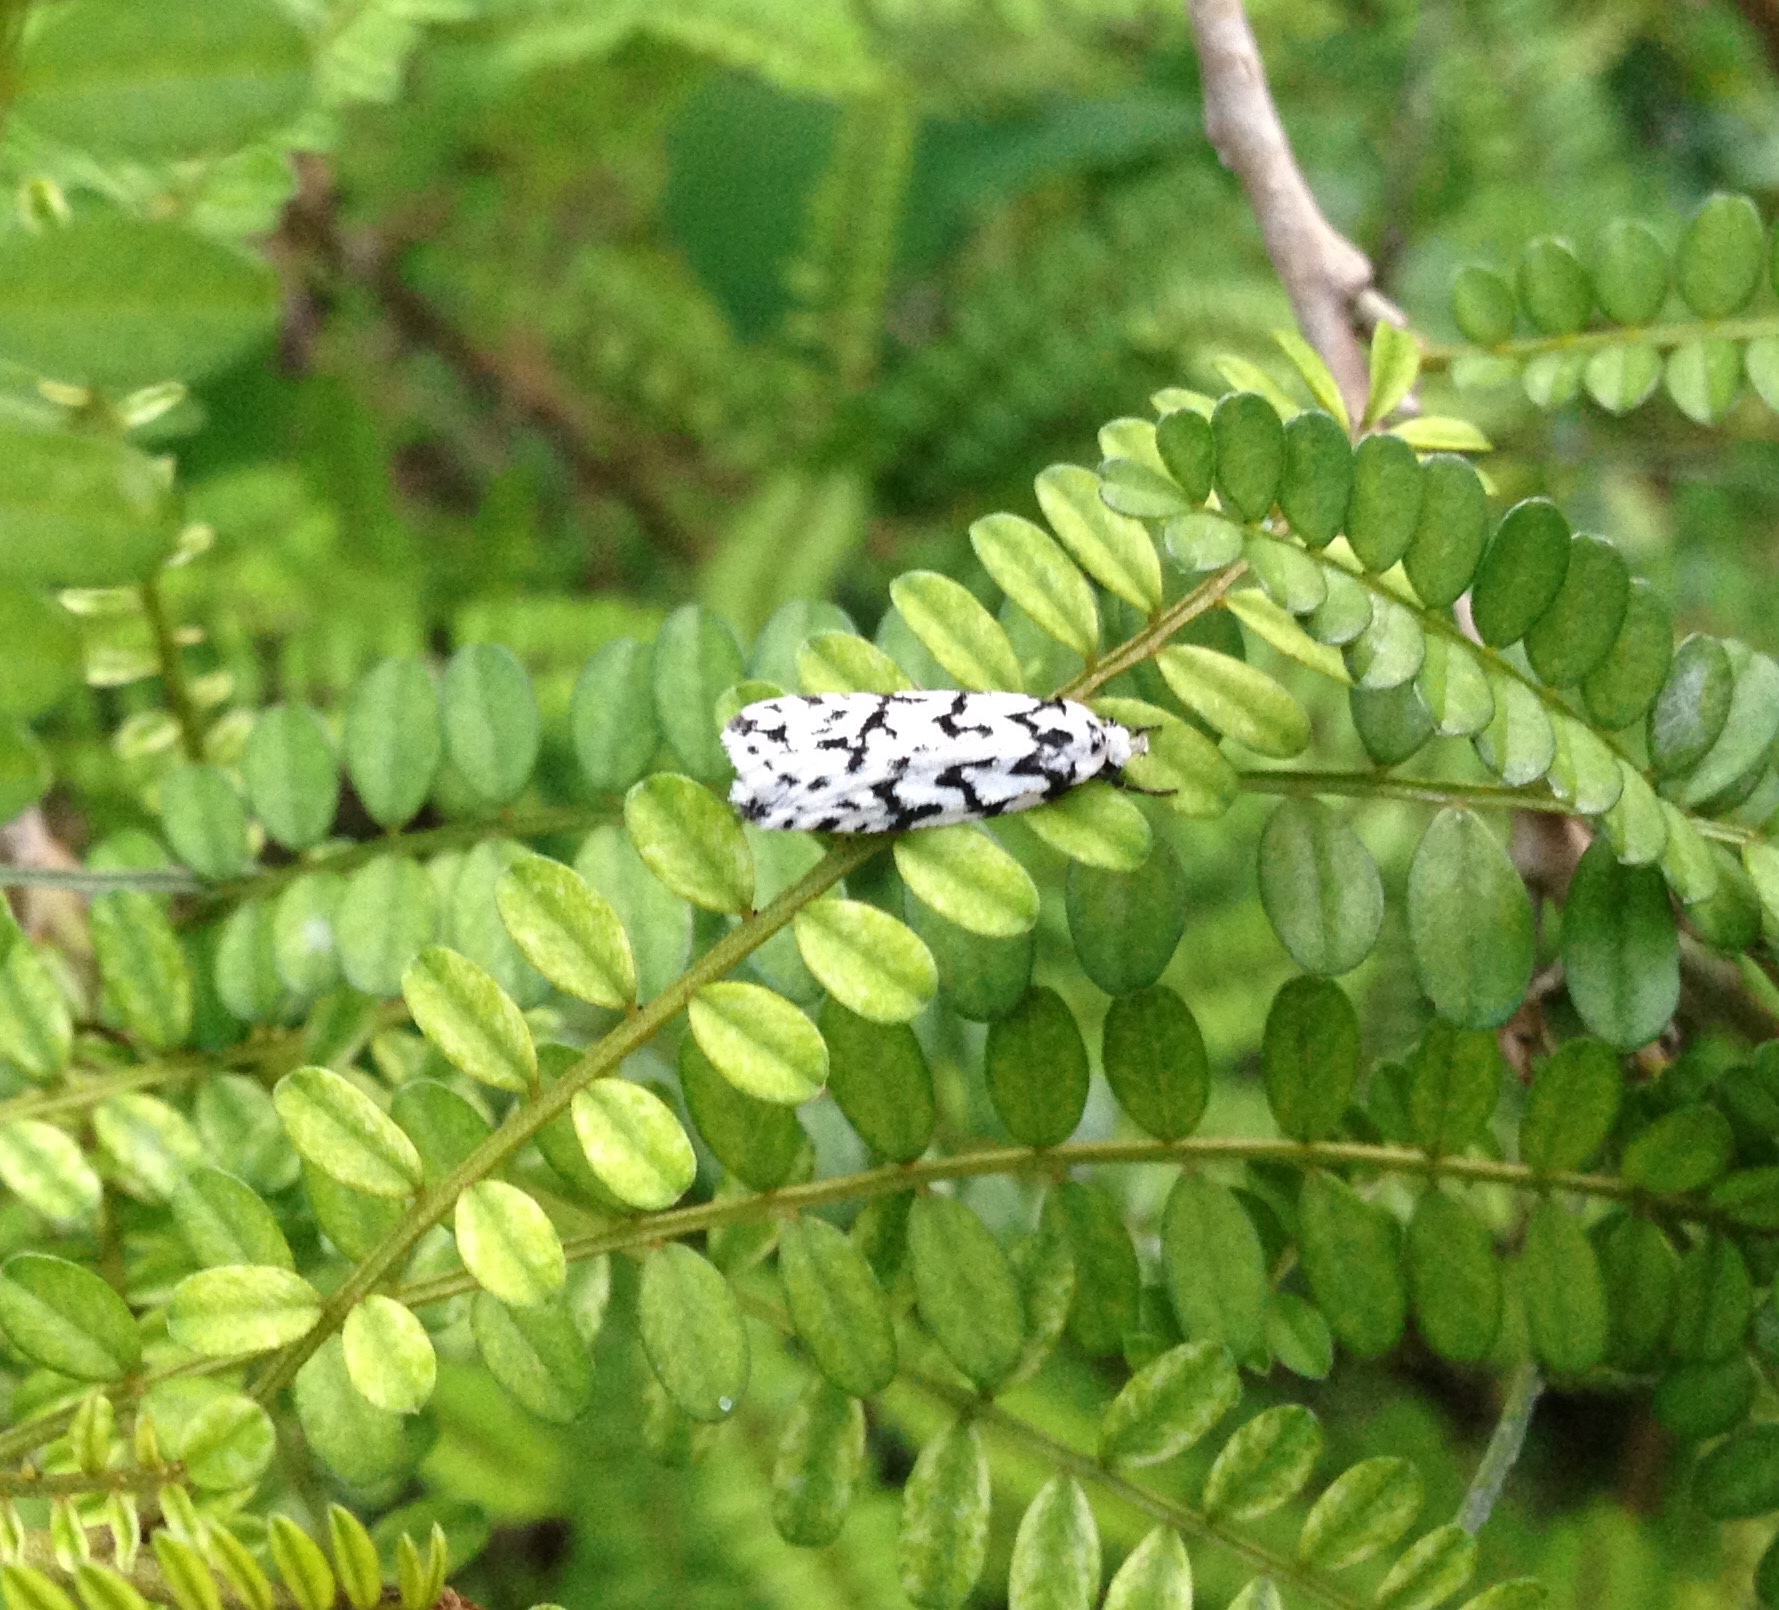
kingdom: Animalia
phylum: Arthropoda
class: Insecta
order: Lepidoptera
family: Oecophoridae
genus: Izatha
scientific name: Izatha katadiktya
